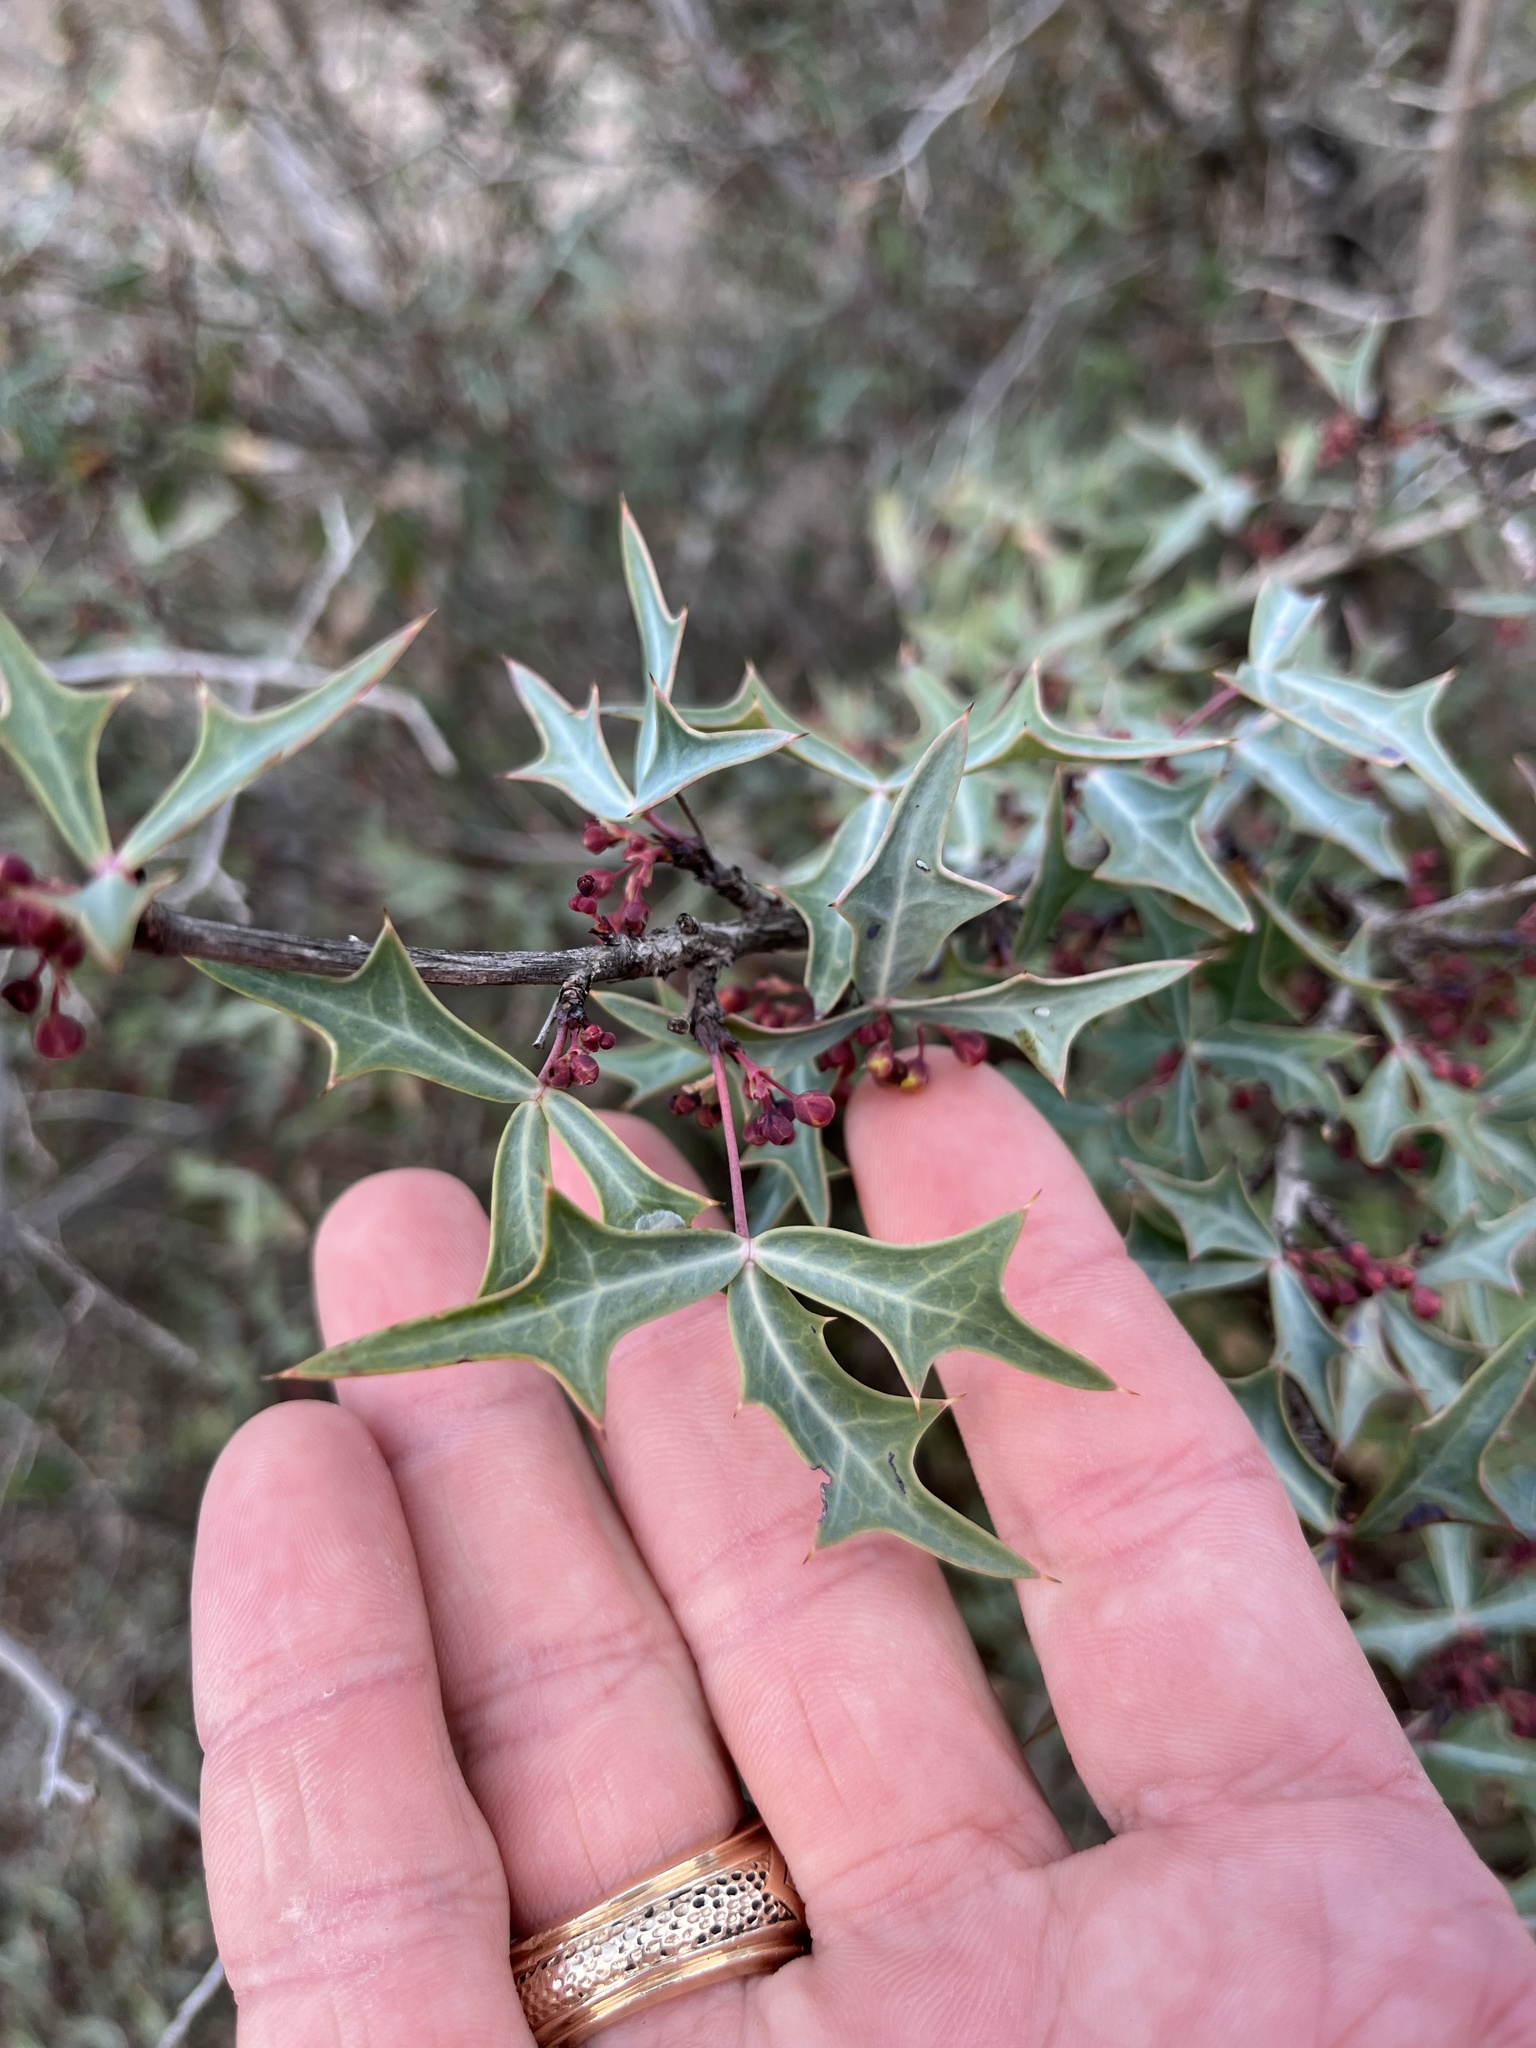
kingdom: Plantae
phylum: Tracheophyta
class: Magnoliopsida
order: Ranunculales
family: Berberidaceae
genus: Alloberberis
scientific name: Alloberberis trifoliolata
